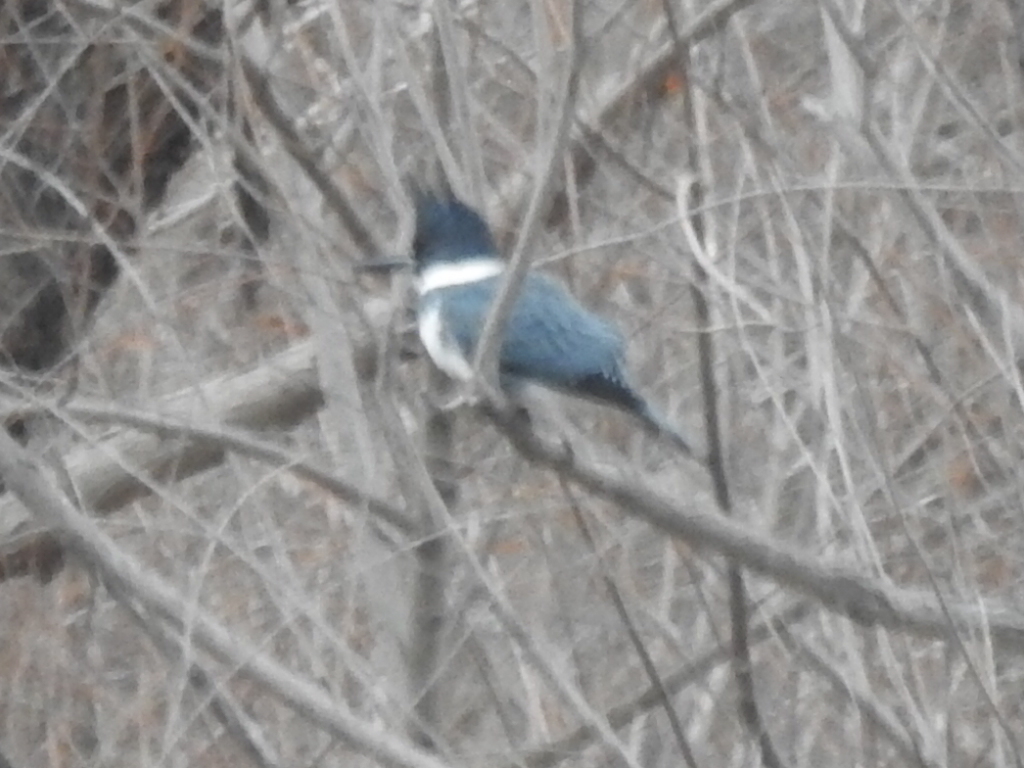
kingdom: Animalia
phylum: Chordata
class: Aves
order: Coraciiformes
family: Alcedinidae
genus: Megaceryle
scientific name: Megaceryle alcyon
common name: Belted kingfisher
